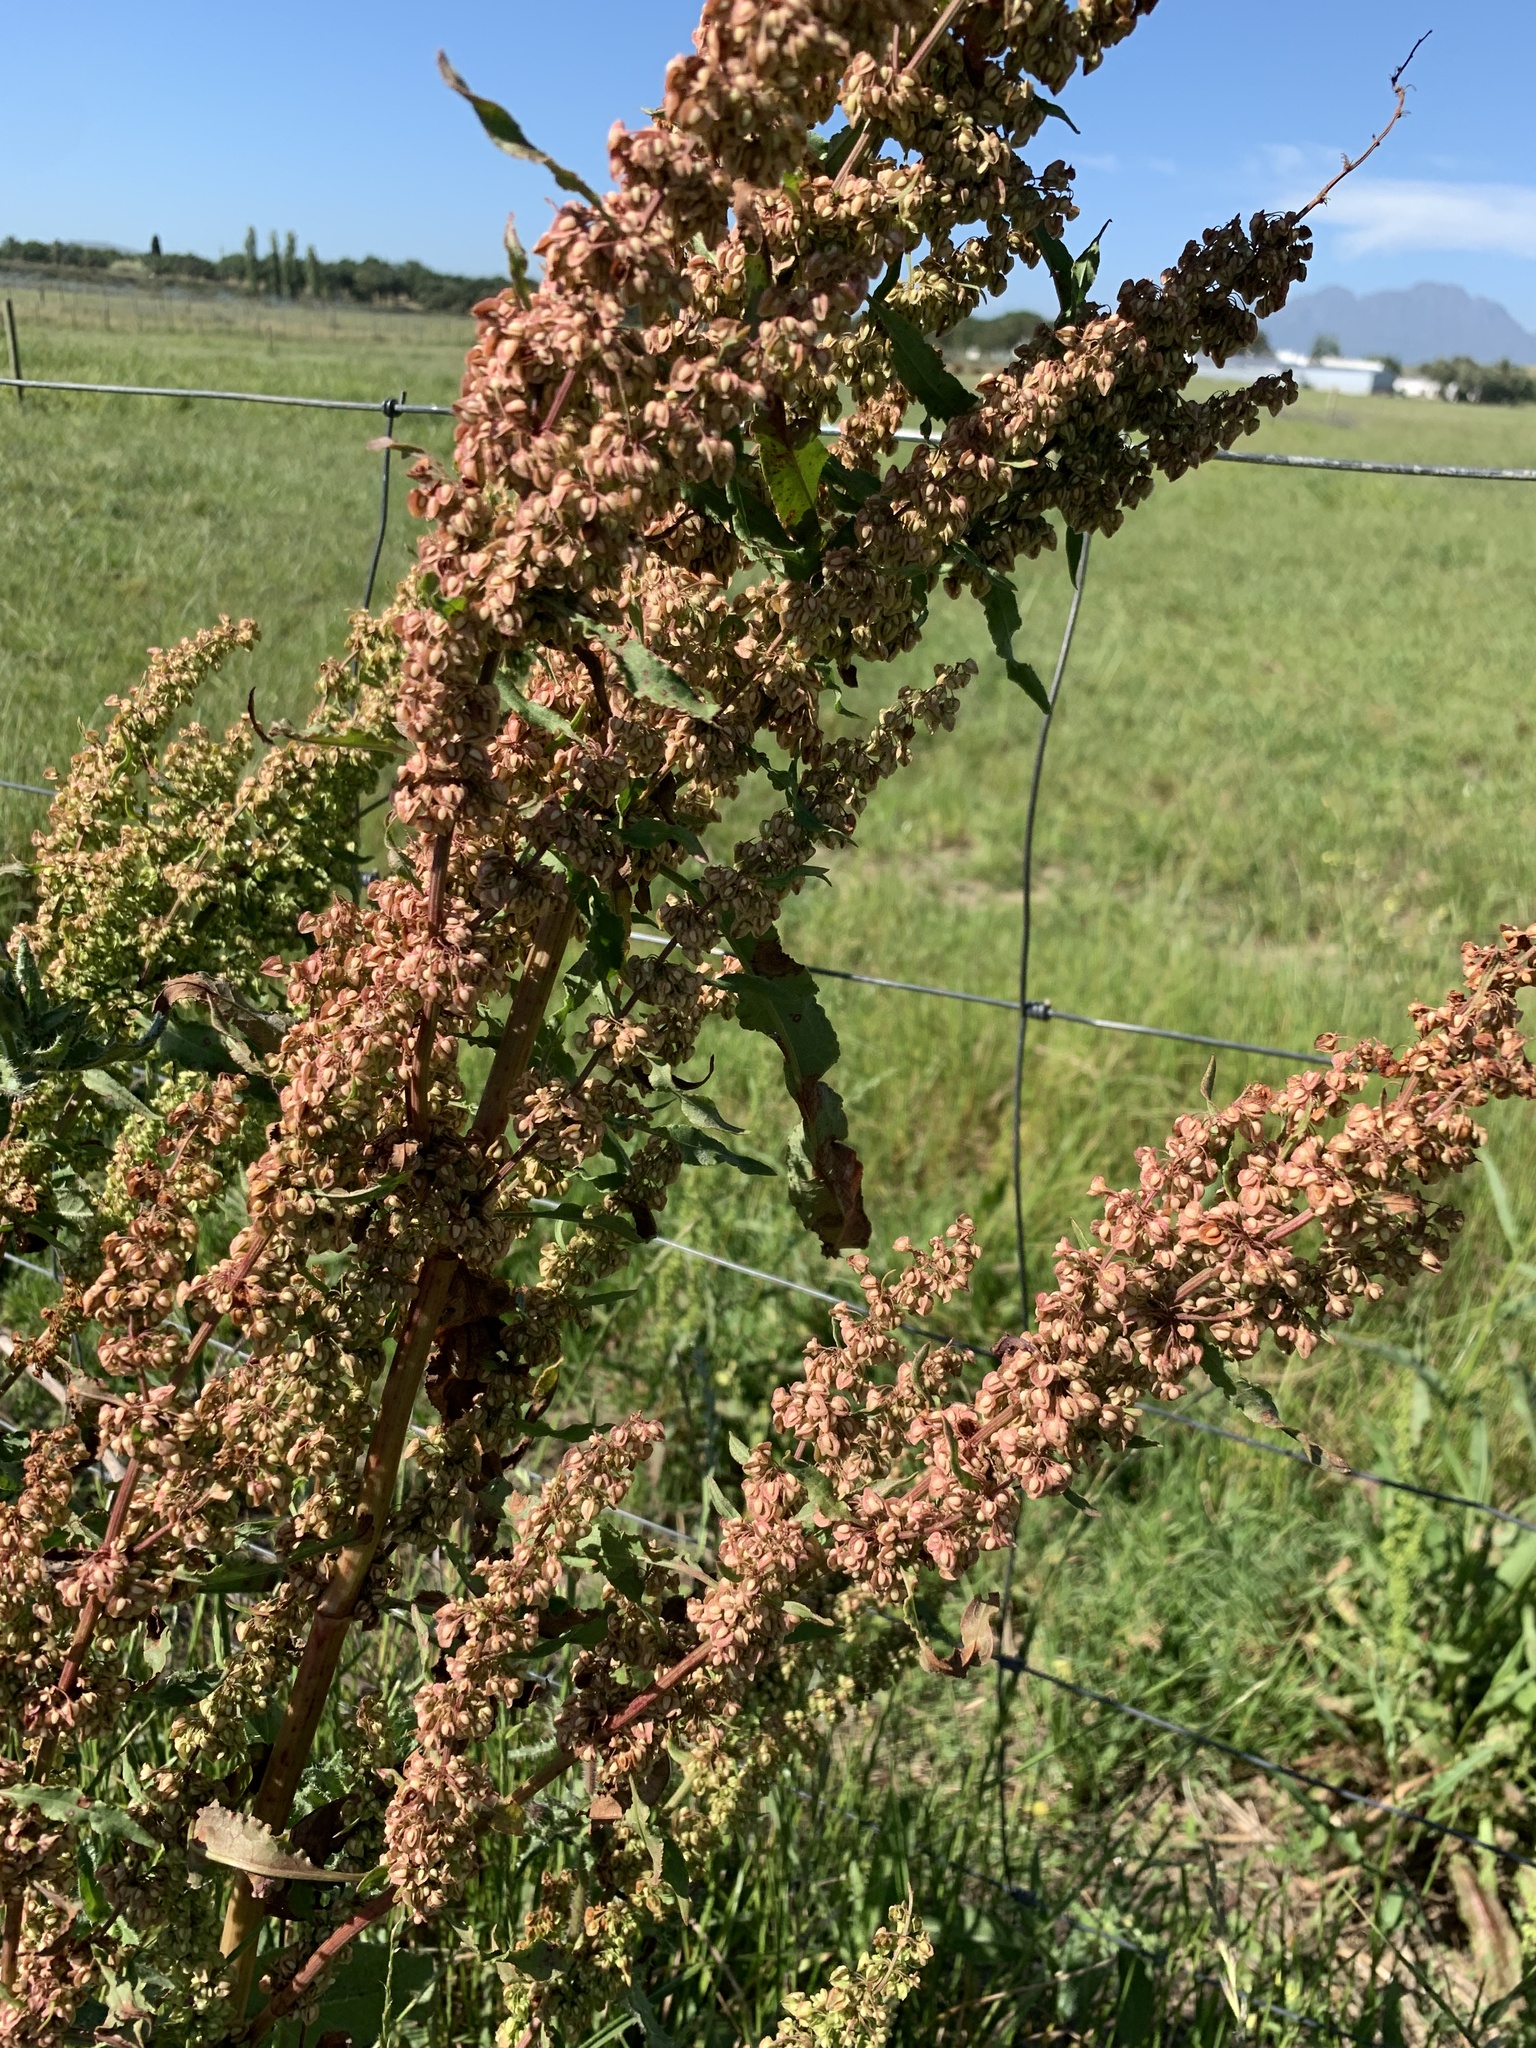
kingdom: Plantae
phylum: Tracheophyta
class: Magnoliopsida
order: Caryophyllales
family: Polygonaceae
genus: Rumex
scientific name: Rumex crispus
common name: Curled dock
